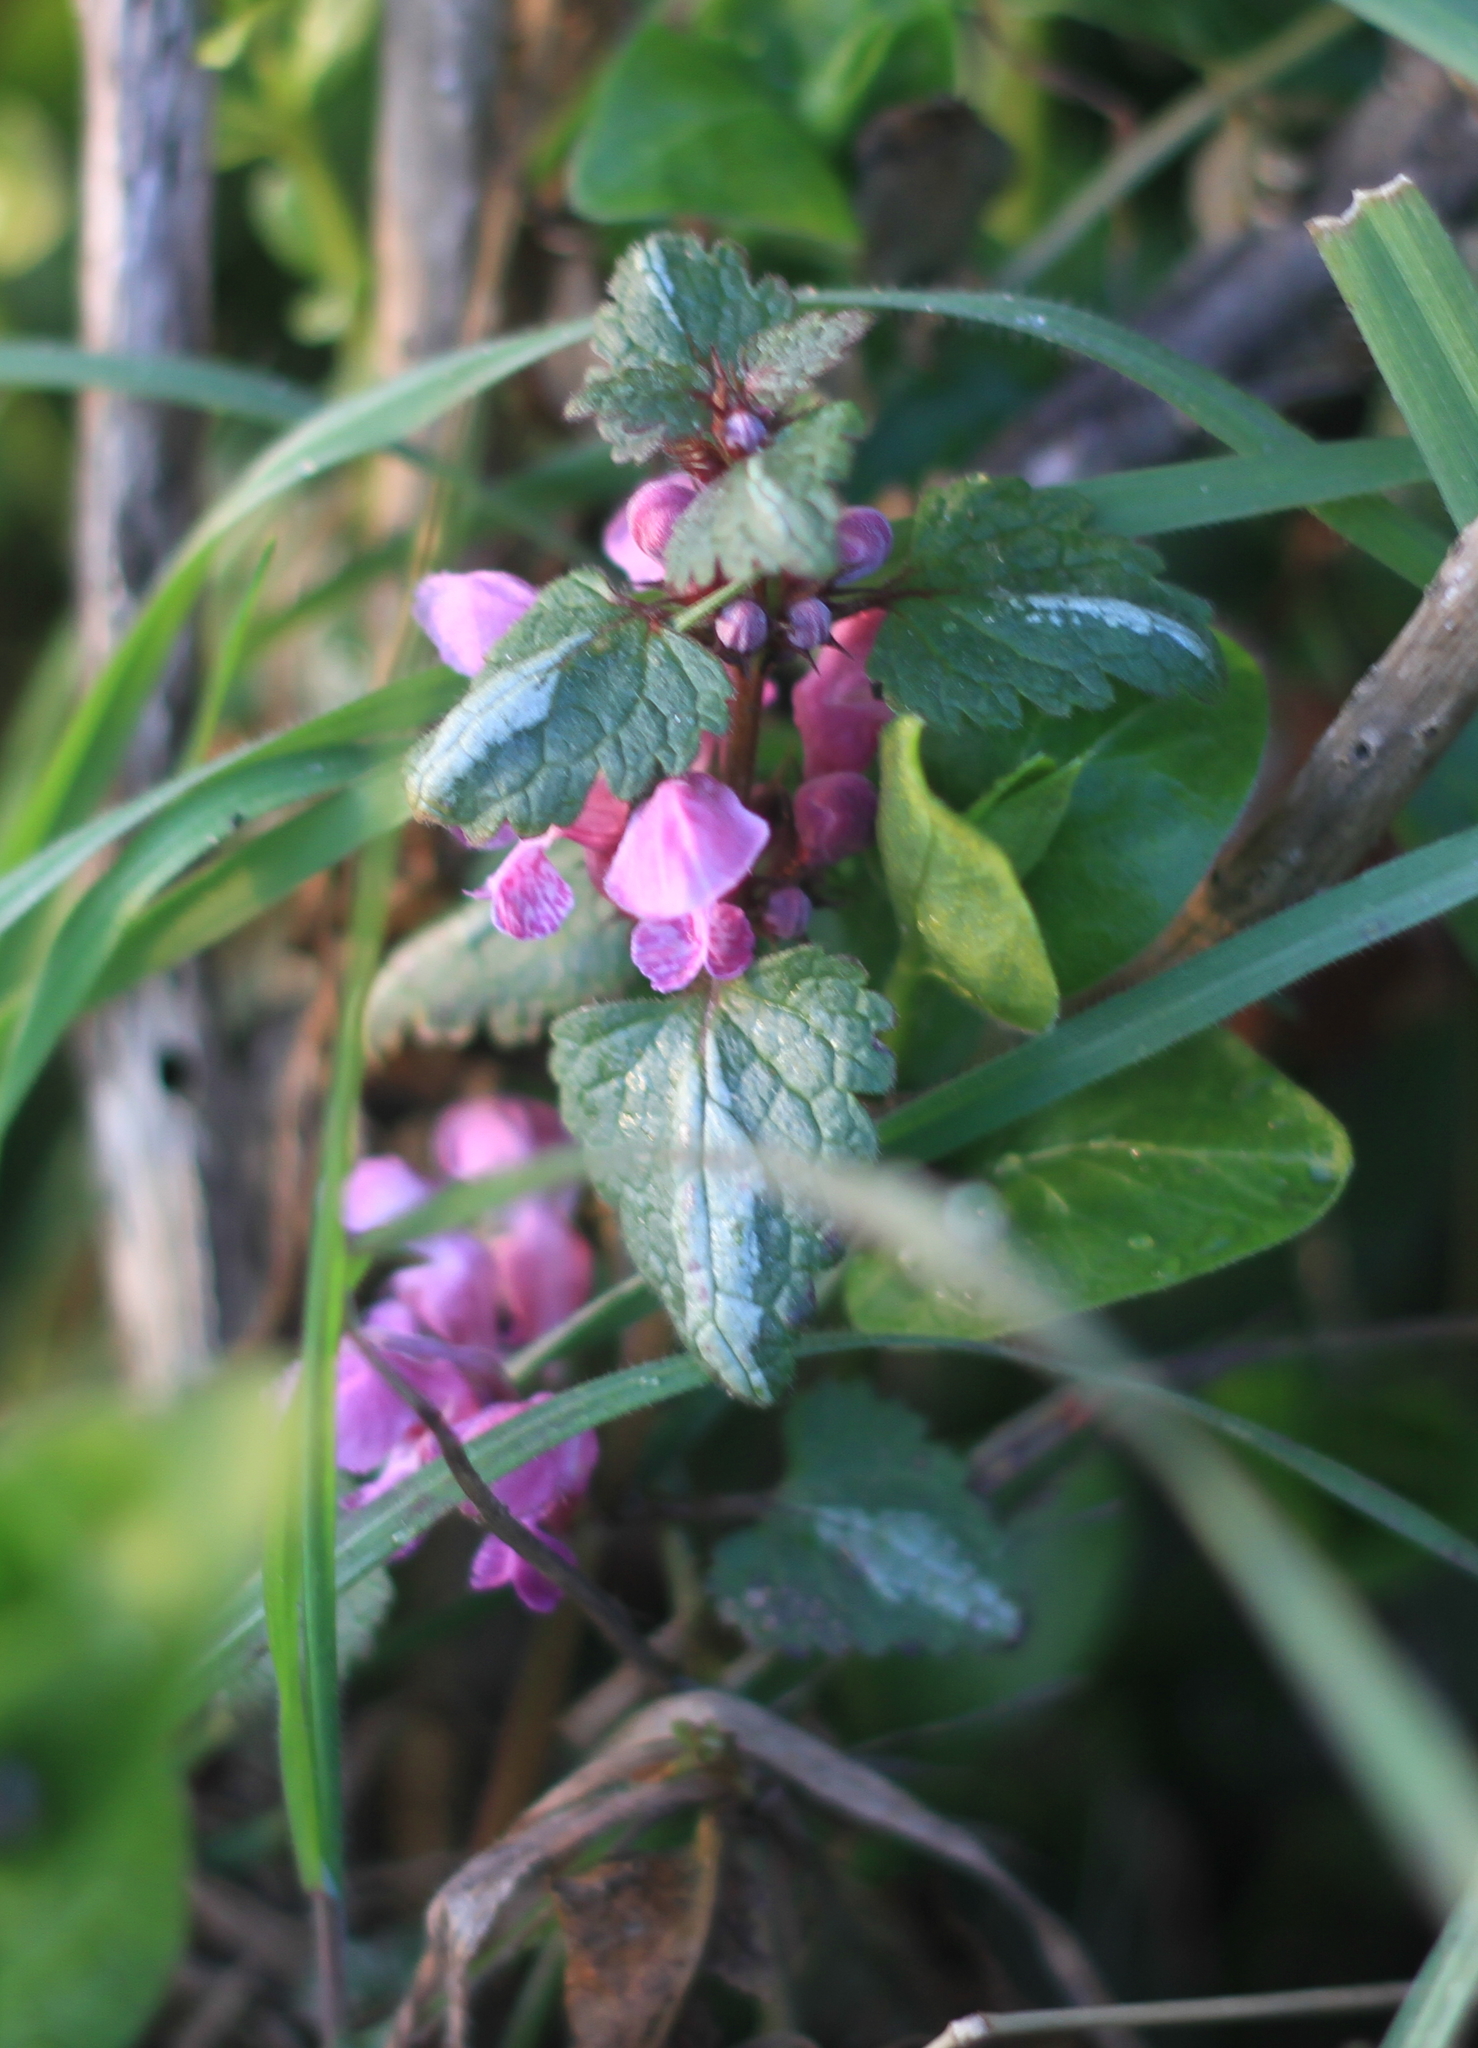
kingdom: Plantae
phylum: Tracheophyta
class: Magnoliopsida
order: Lamiales
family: Lamiaceae
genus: Lamium
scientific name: Lamium maculatum
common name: Spotted dead-nettle
